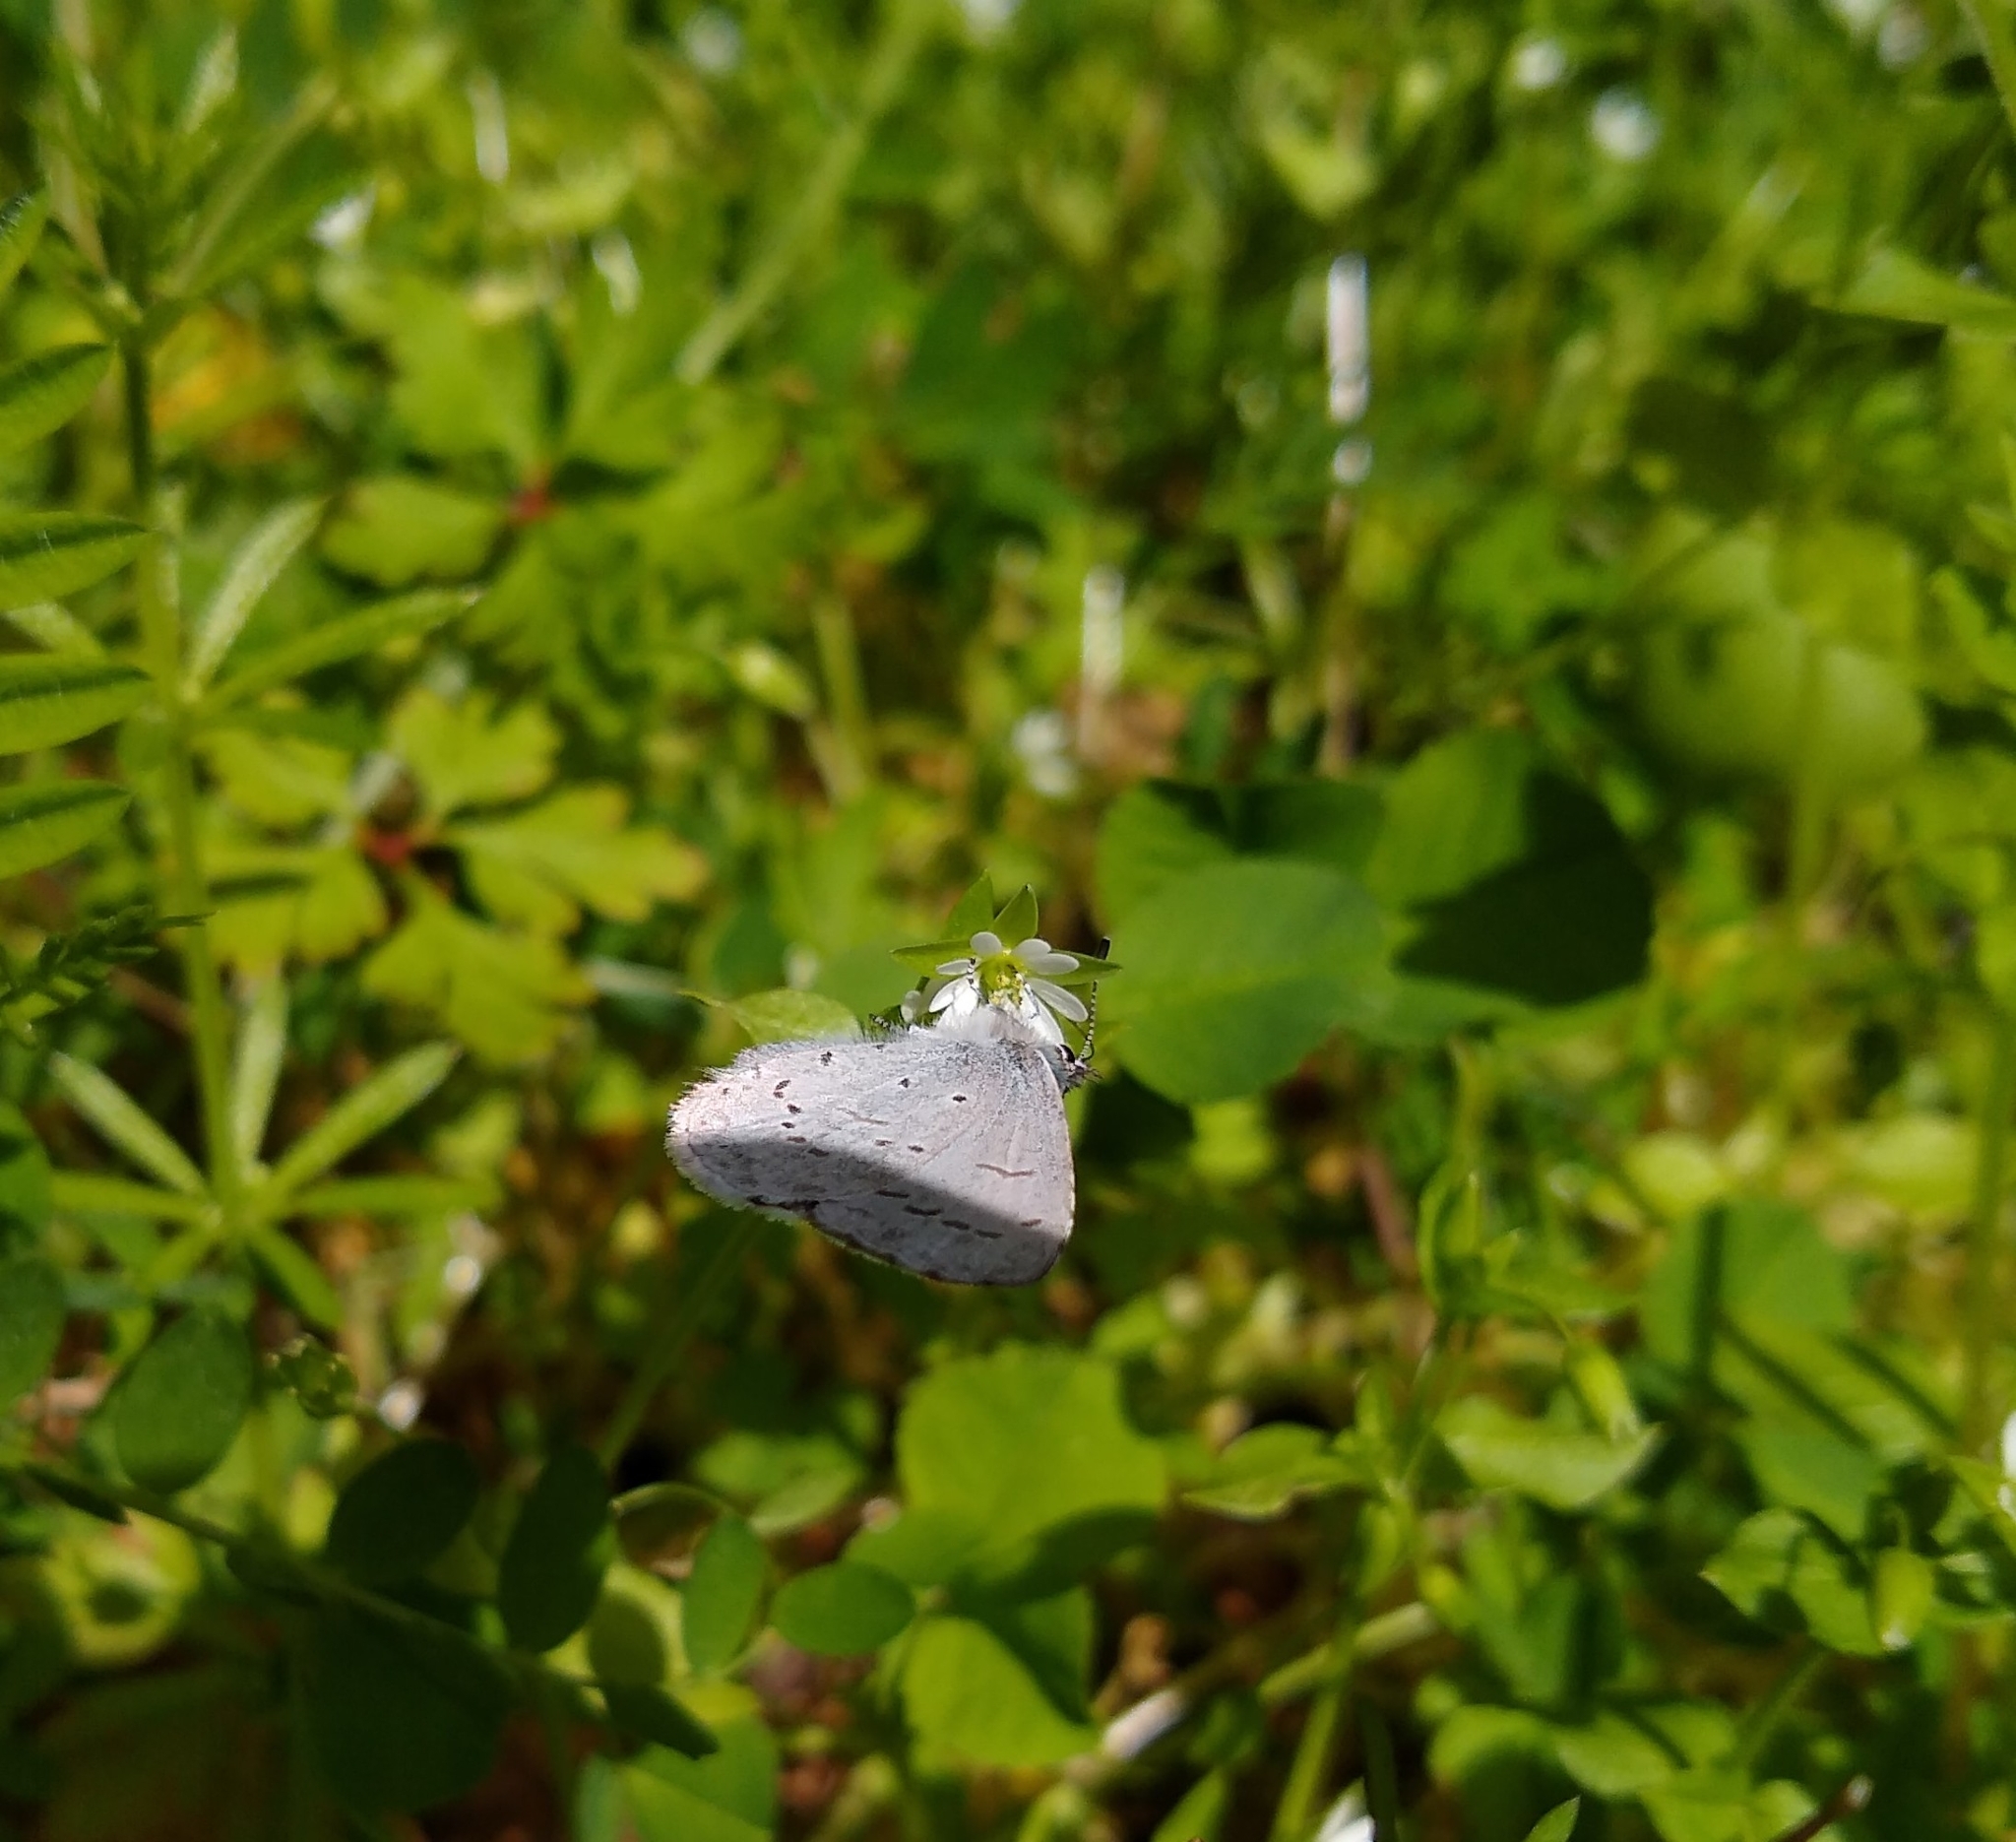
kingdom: Animalia
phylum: Arthropoda
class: Insecta
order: Lepidoptera
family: Lycaenidae
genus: Celastrina
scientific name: Celastrina ladon
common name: Spring azure
